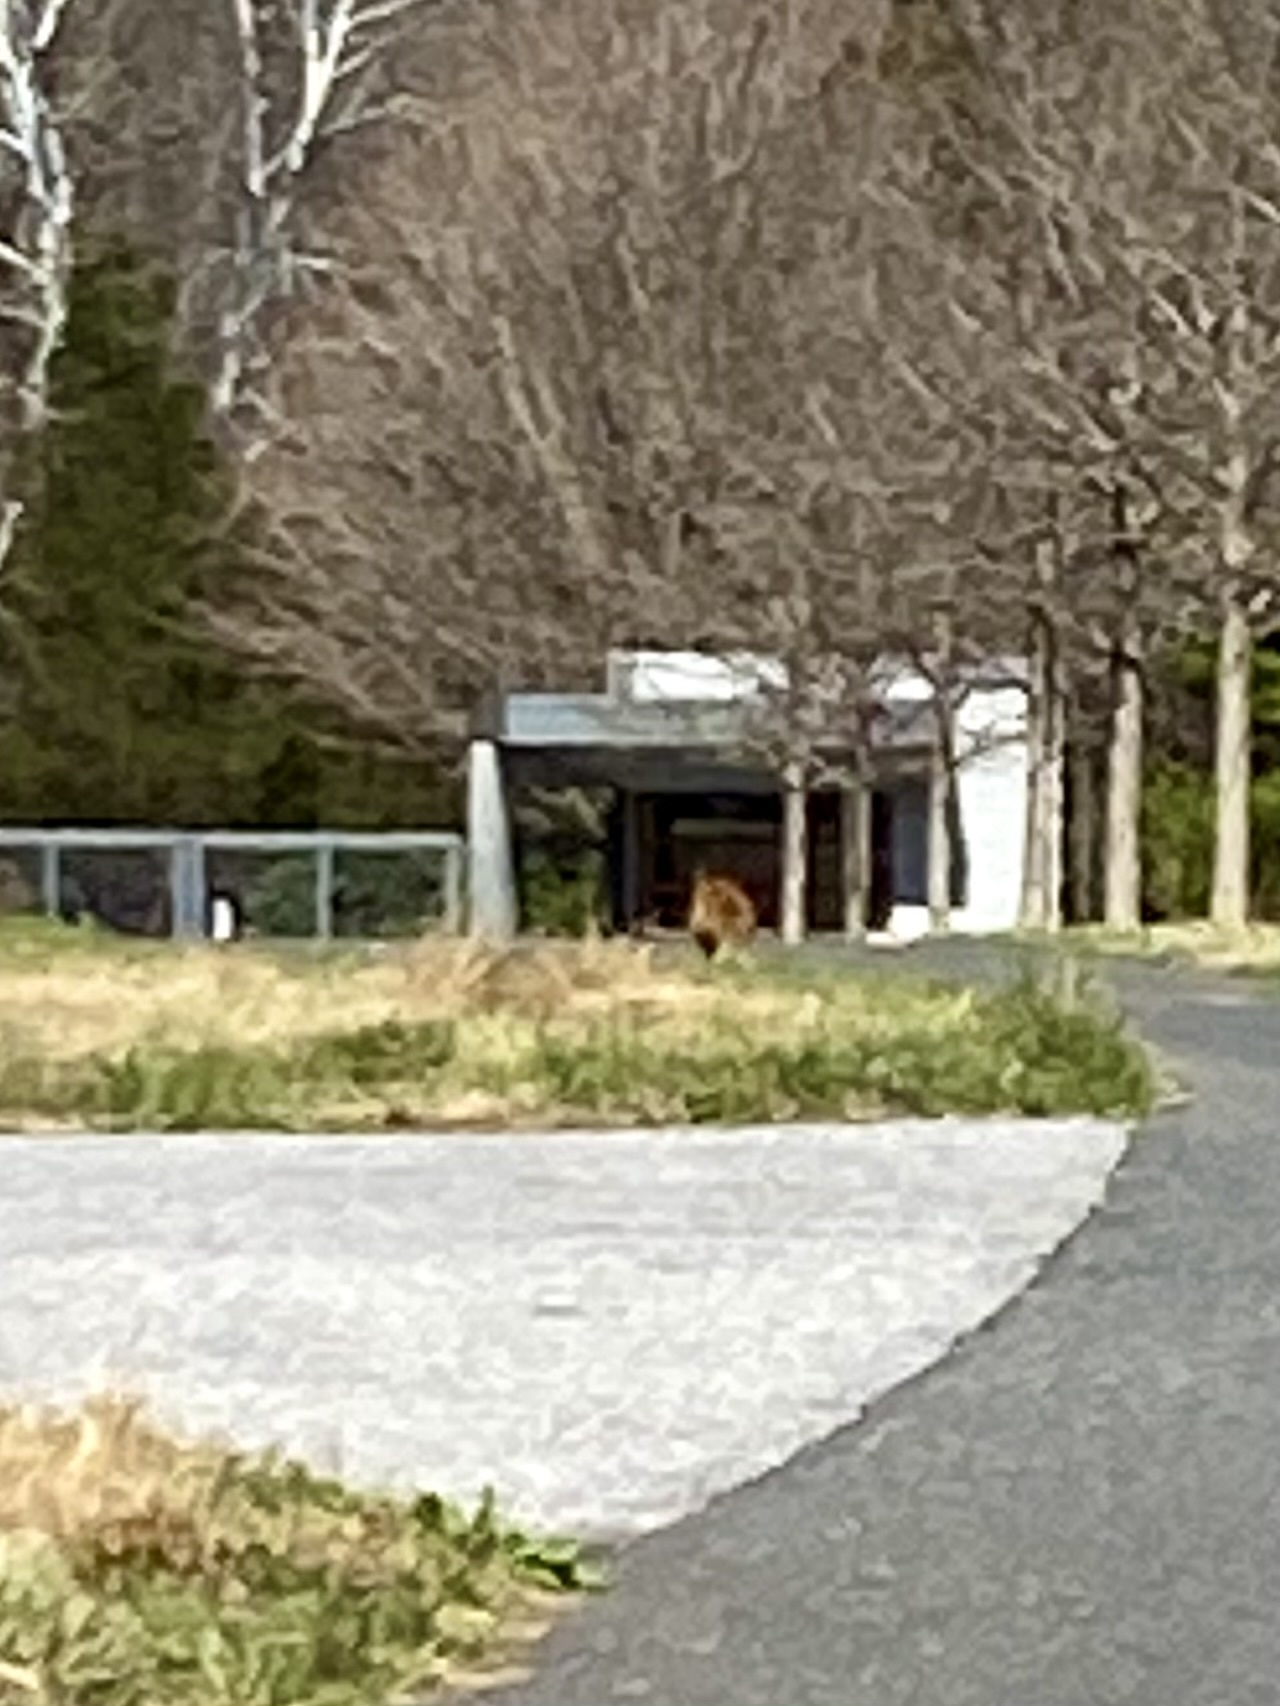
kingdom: Animalia
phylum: Chordata
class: Mammalia
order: Carnivora
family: Canidae
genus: Vulpes
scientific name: Vulpes vulpes
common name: Red fox
